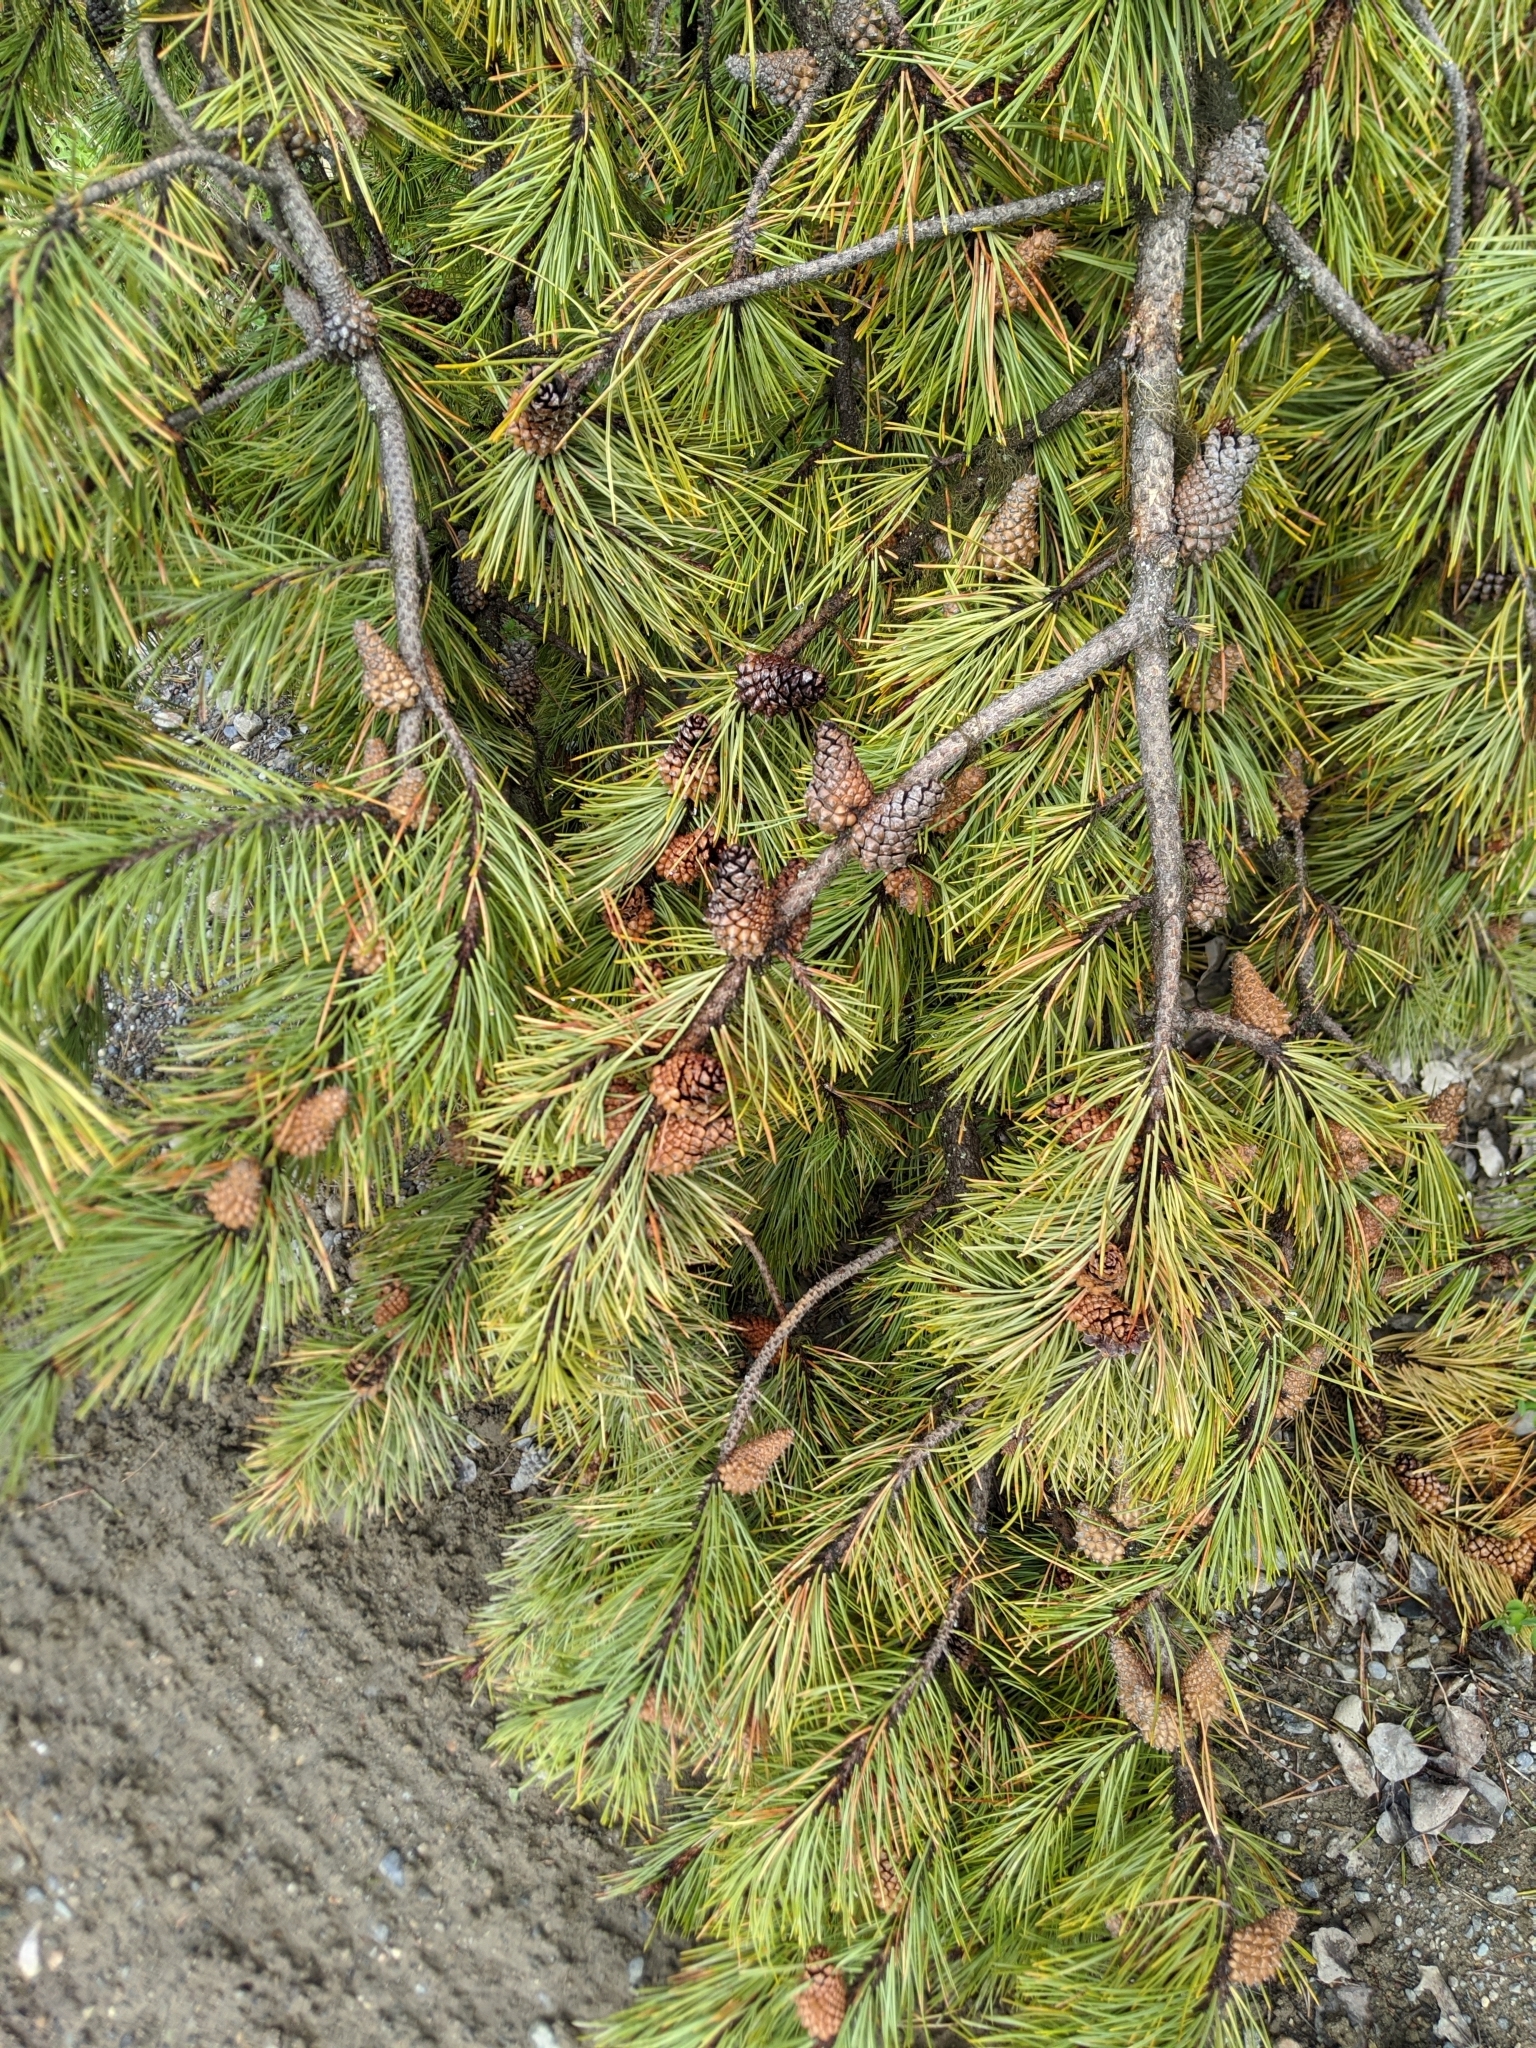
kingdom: Plantae
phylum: Tracheophyta
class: Pinopsida
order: Pinales
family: Pinaceae
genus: Pinus
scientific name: Pinus contorta
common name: Lodgepole pine
